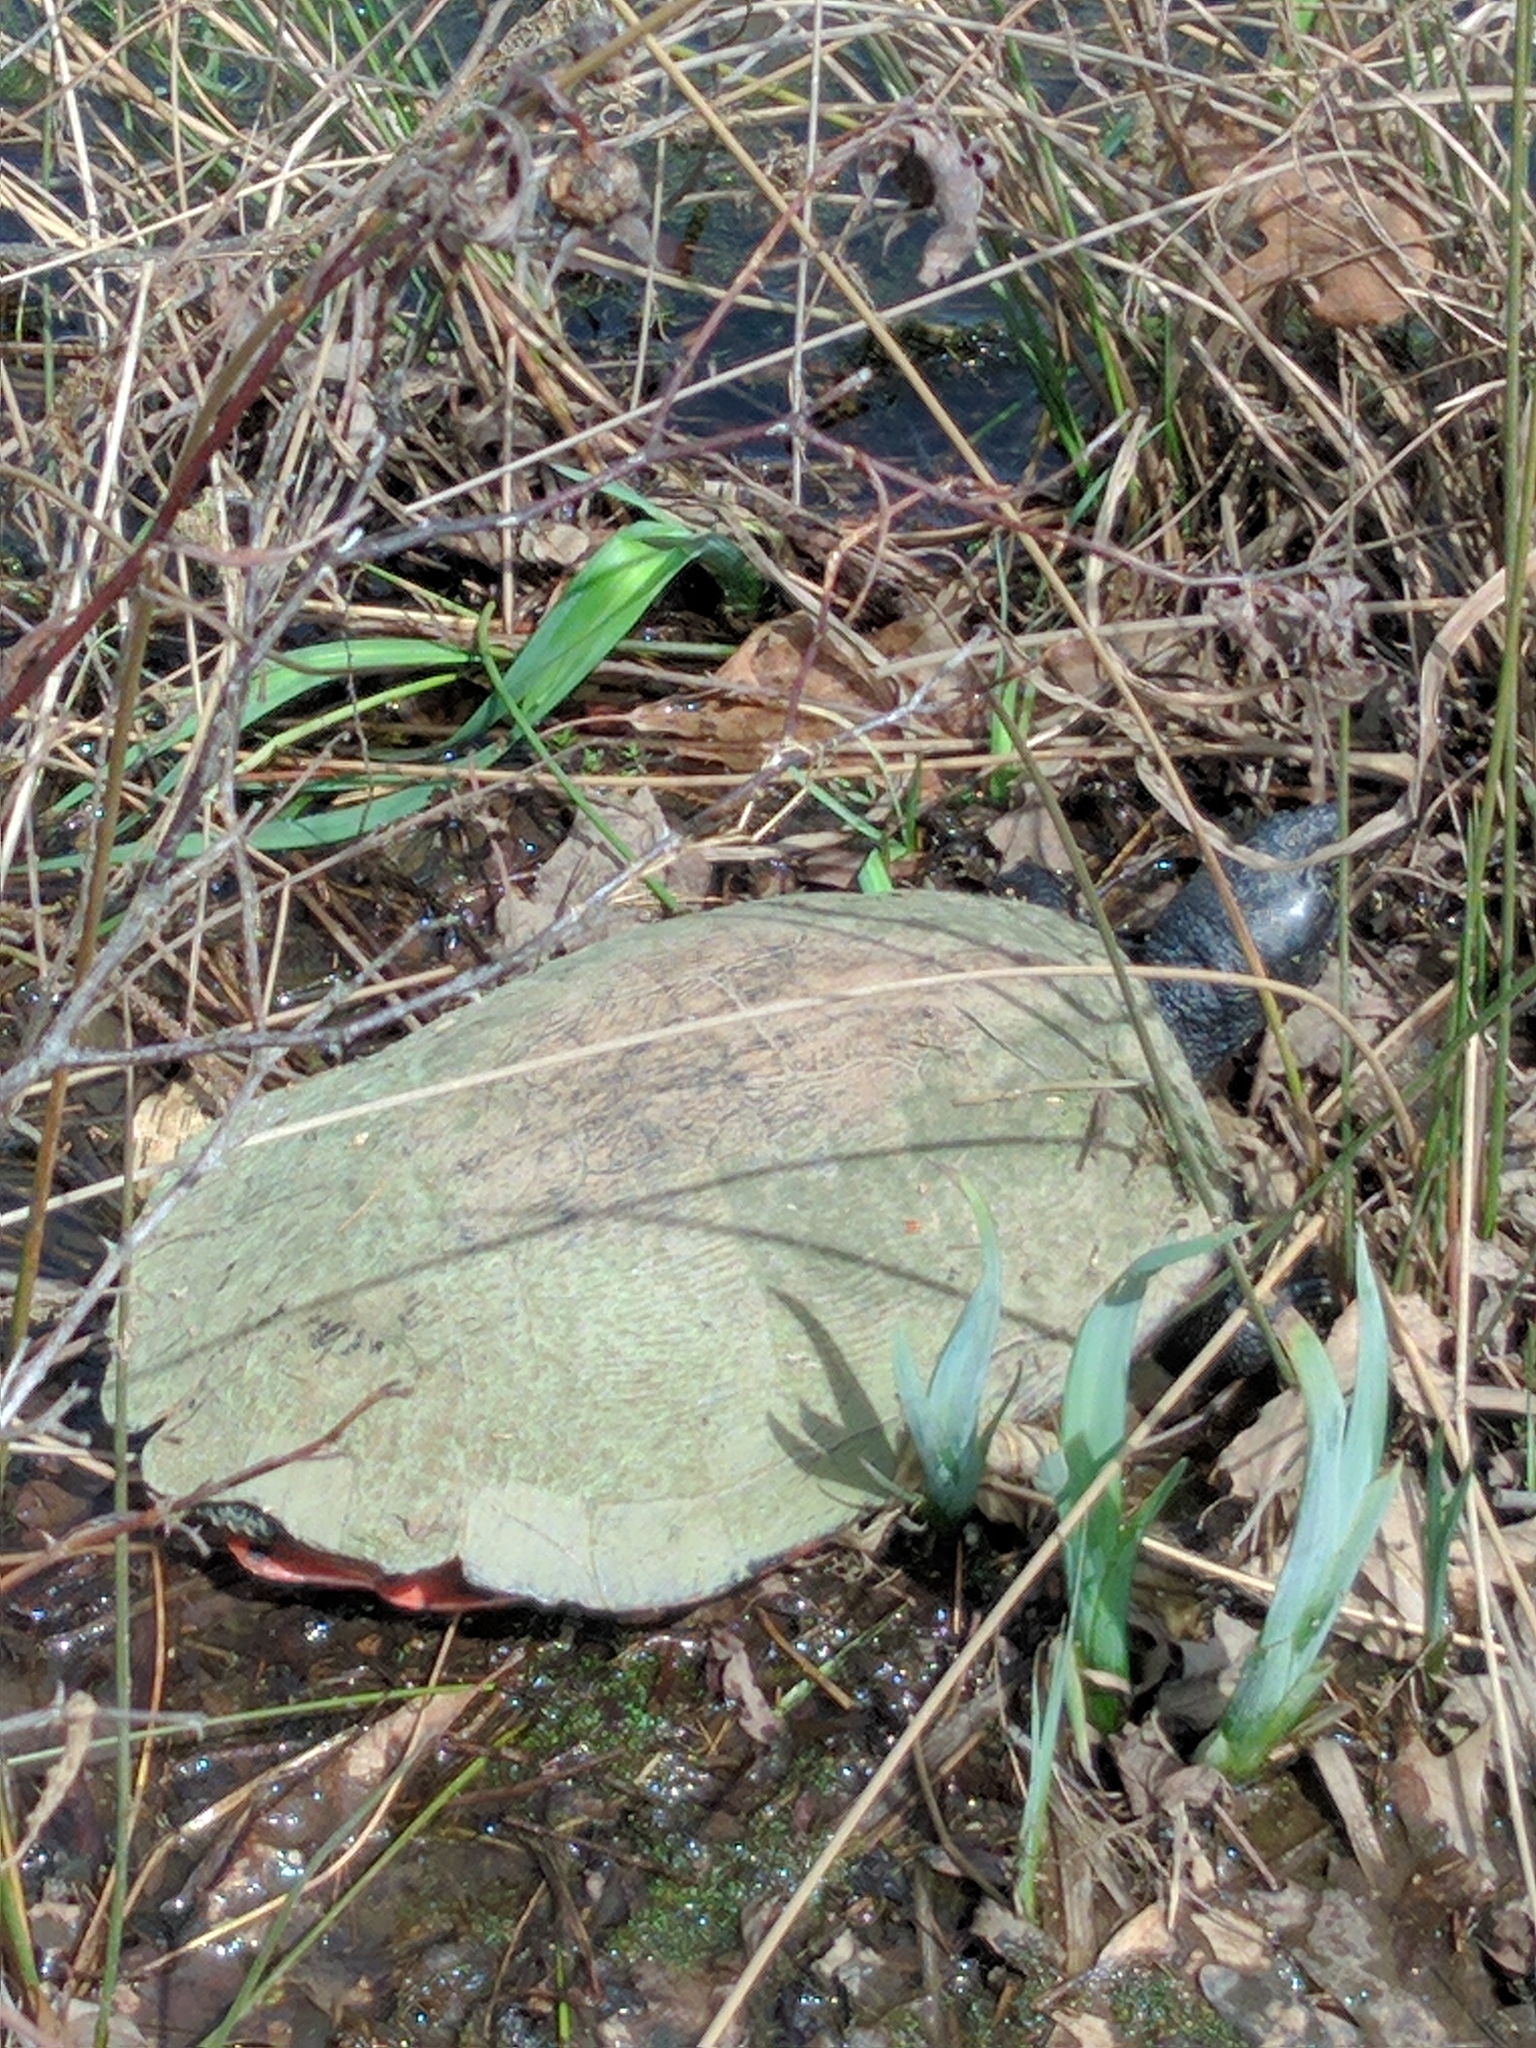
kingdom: Animalia
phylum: Chordata
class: Testudines
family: Emydidae
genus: Pseudemys
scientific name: Pseudemys rubriventris
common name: American red-bellied turtle
